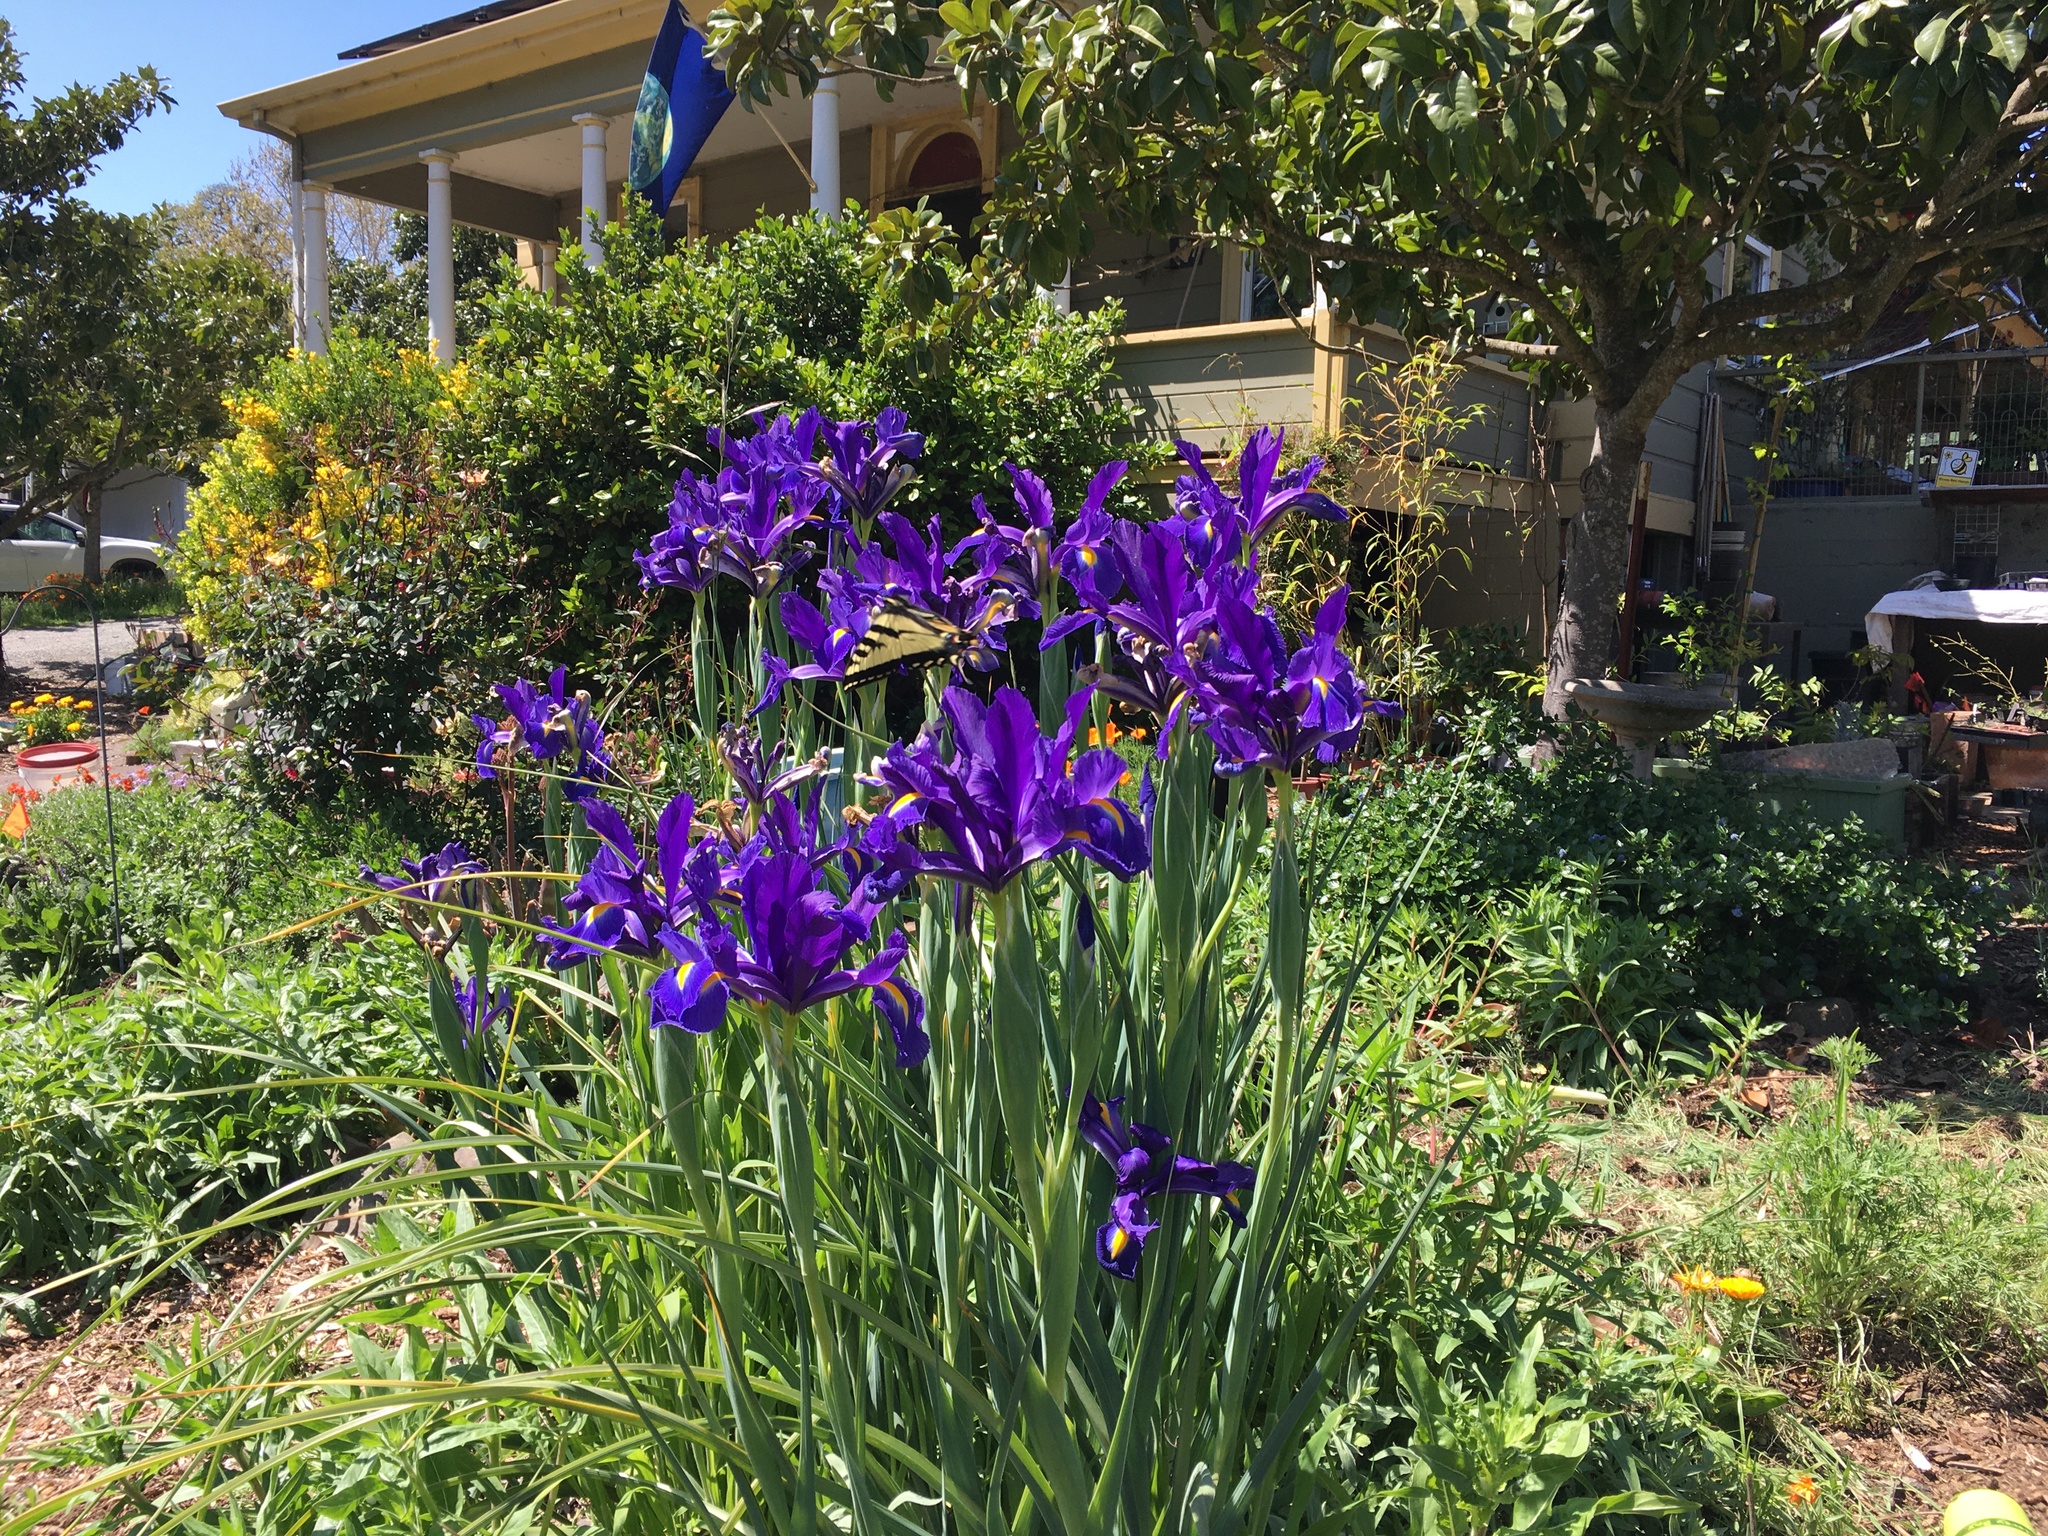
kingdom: Animalia
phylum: Arthropoda
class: Insecta
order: Lepidoptera
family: Papilionidae
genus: Papilio
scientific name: Papilio rutulus
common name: Western tiger swallowtail
